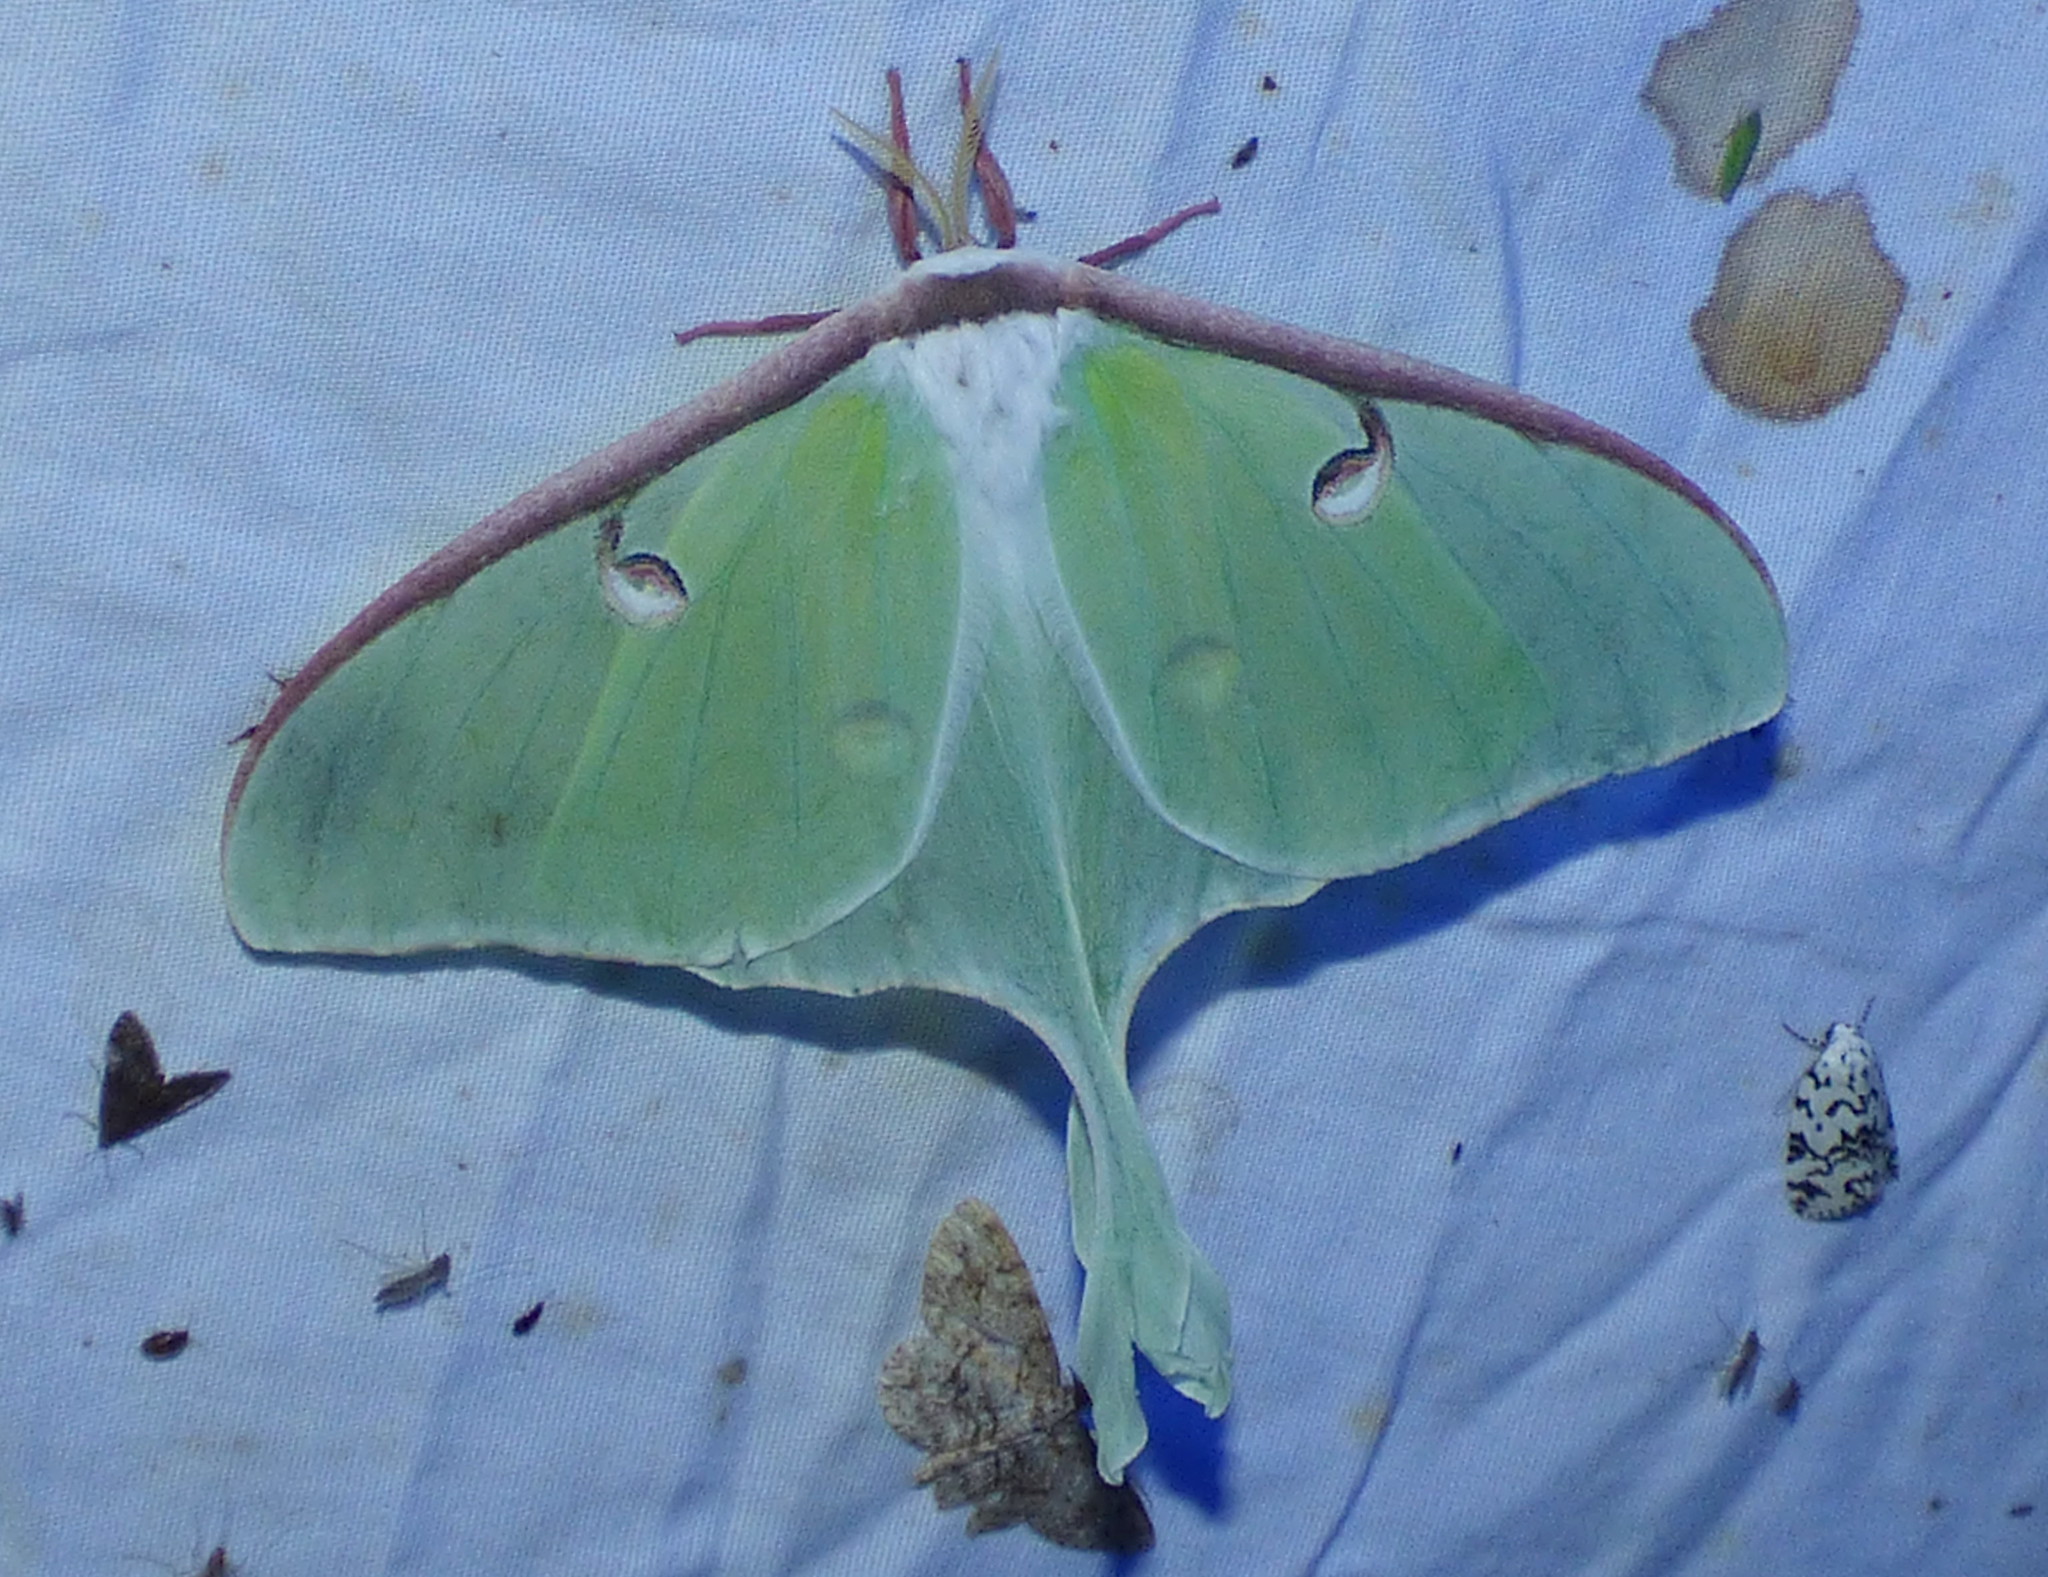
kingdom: Animalia
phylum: Arthropoda
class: Insecta
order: Lepidoptera
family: Saturniidae
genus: Actias
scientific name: Actias luna
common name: Luna moth
